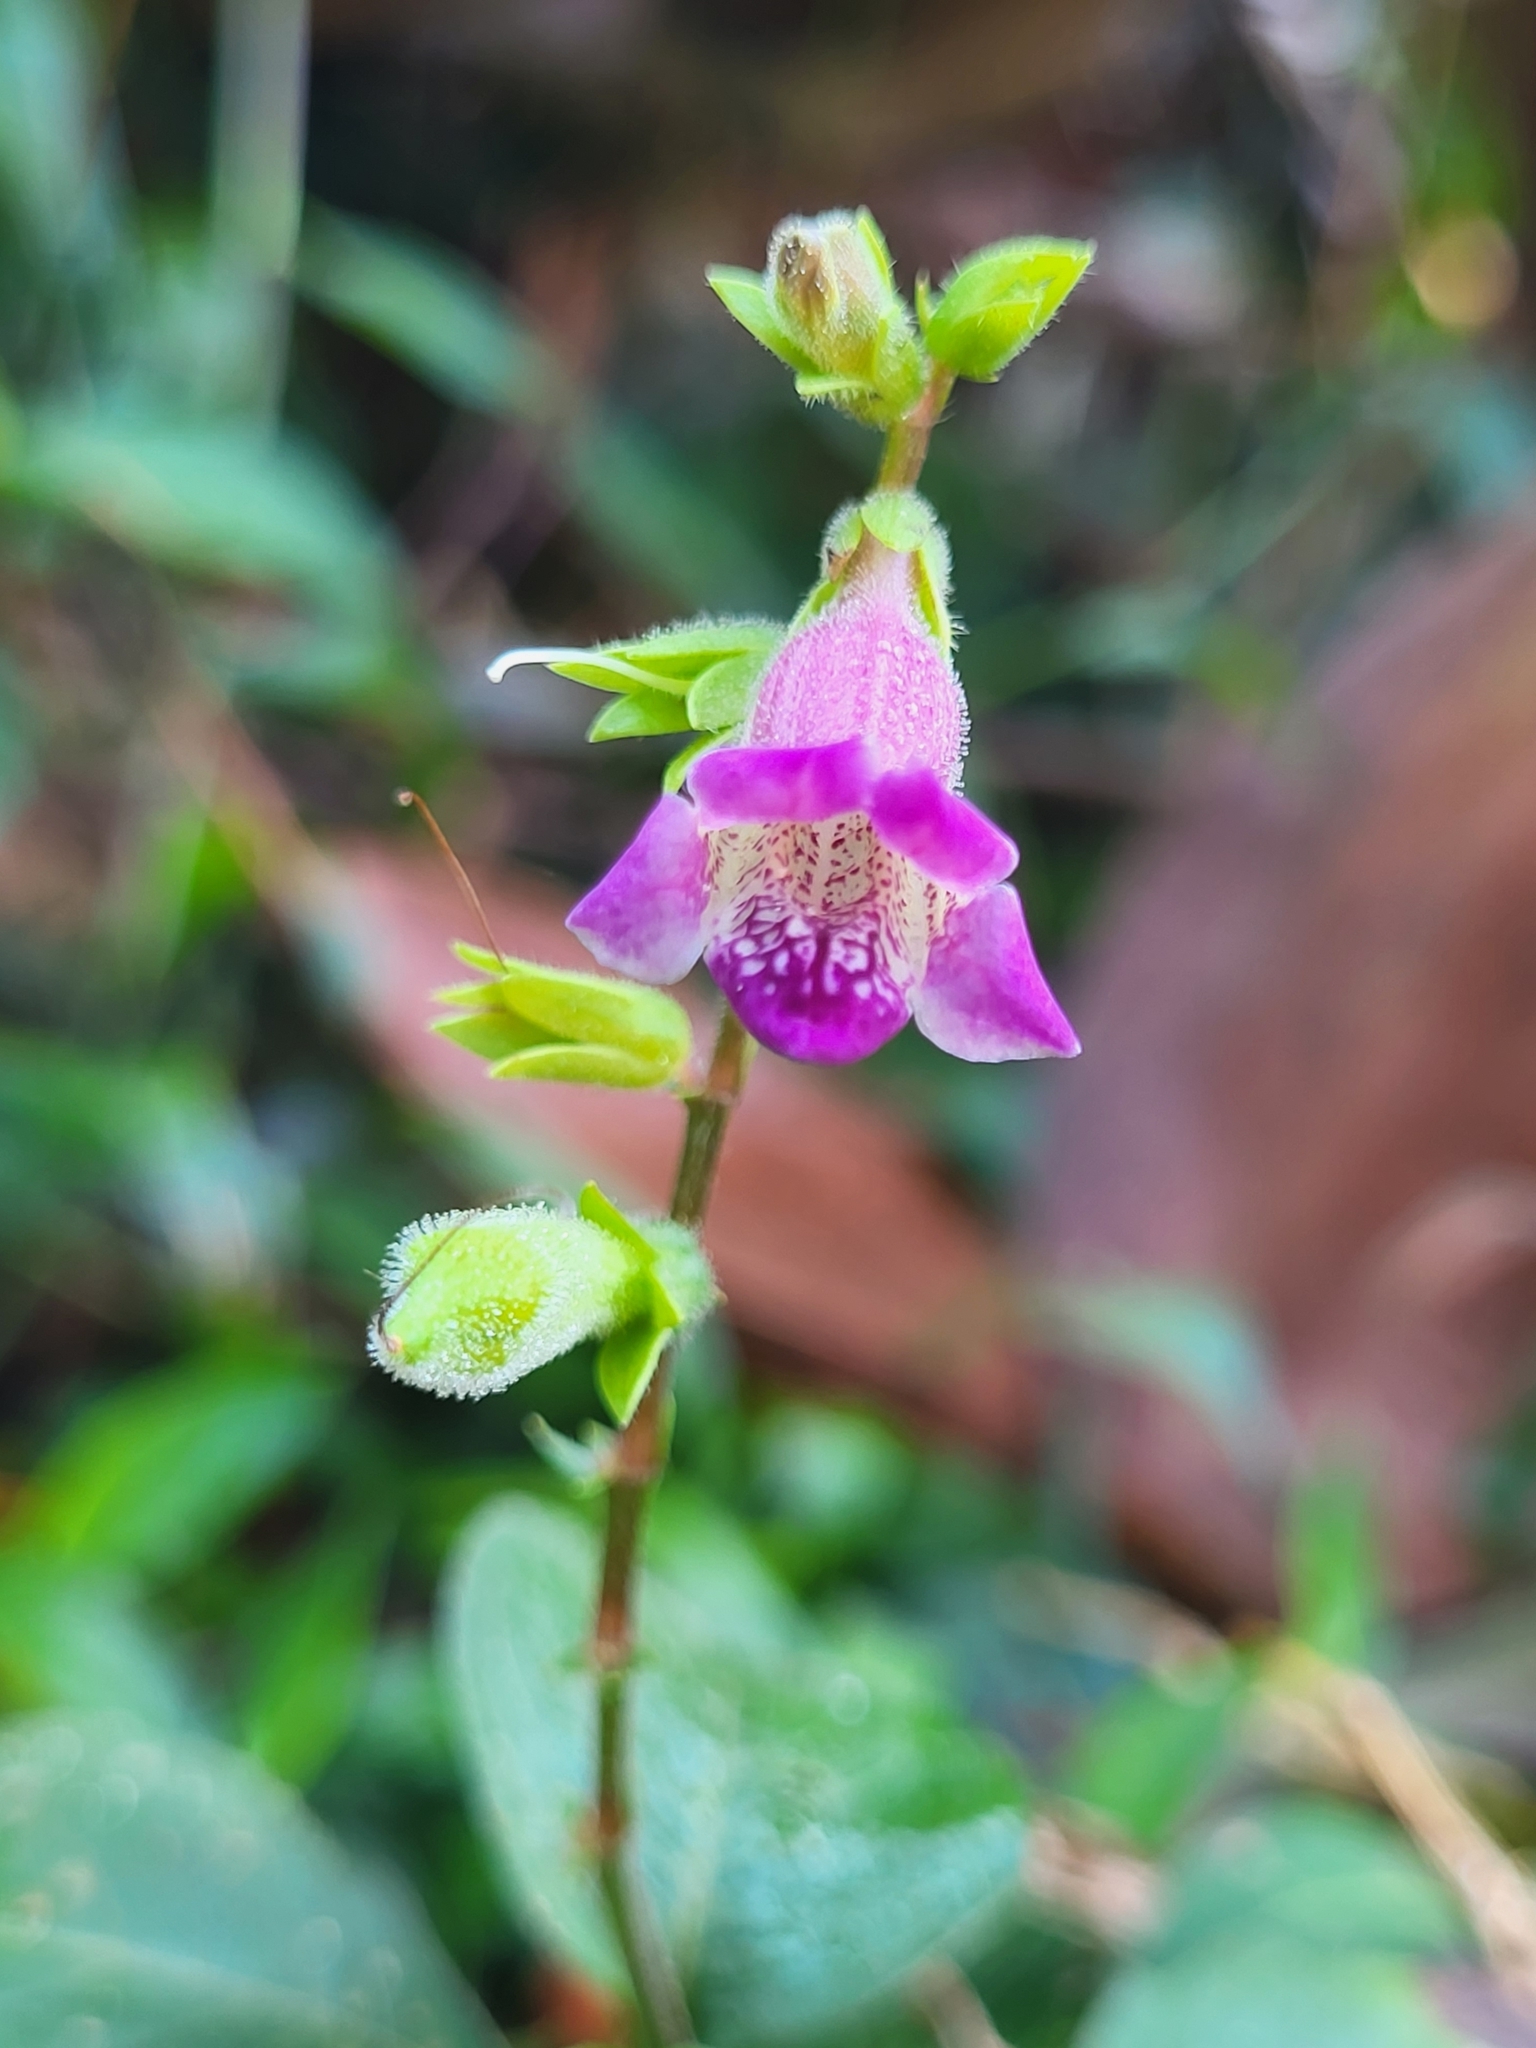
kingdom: Plantae
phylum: Tracheophyta
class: Magnoliopsida
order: Lamiales
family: Acanthaceae
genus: Asystasia
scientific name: Asystasia dalzelliana
